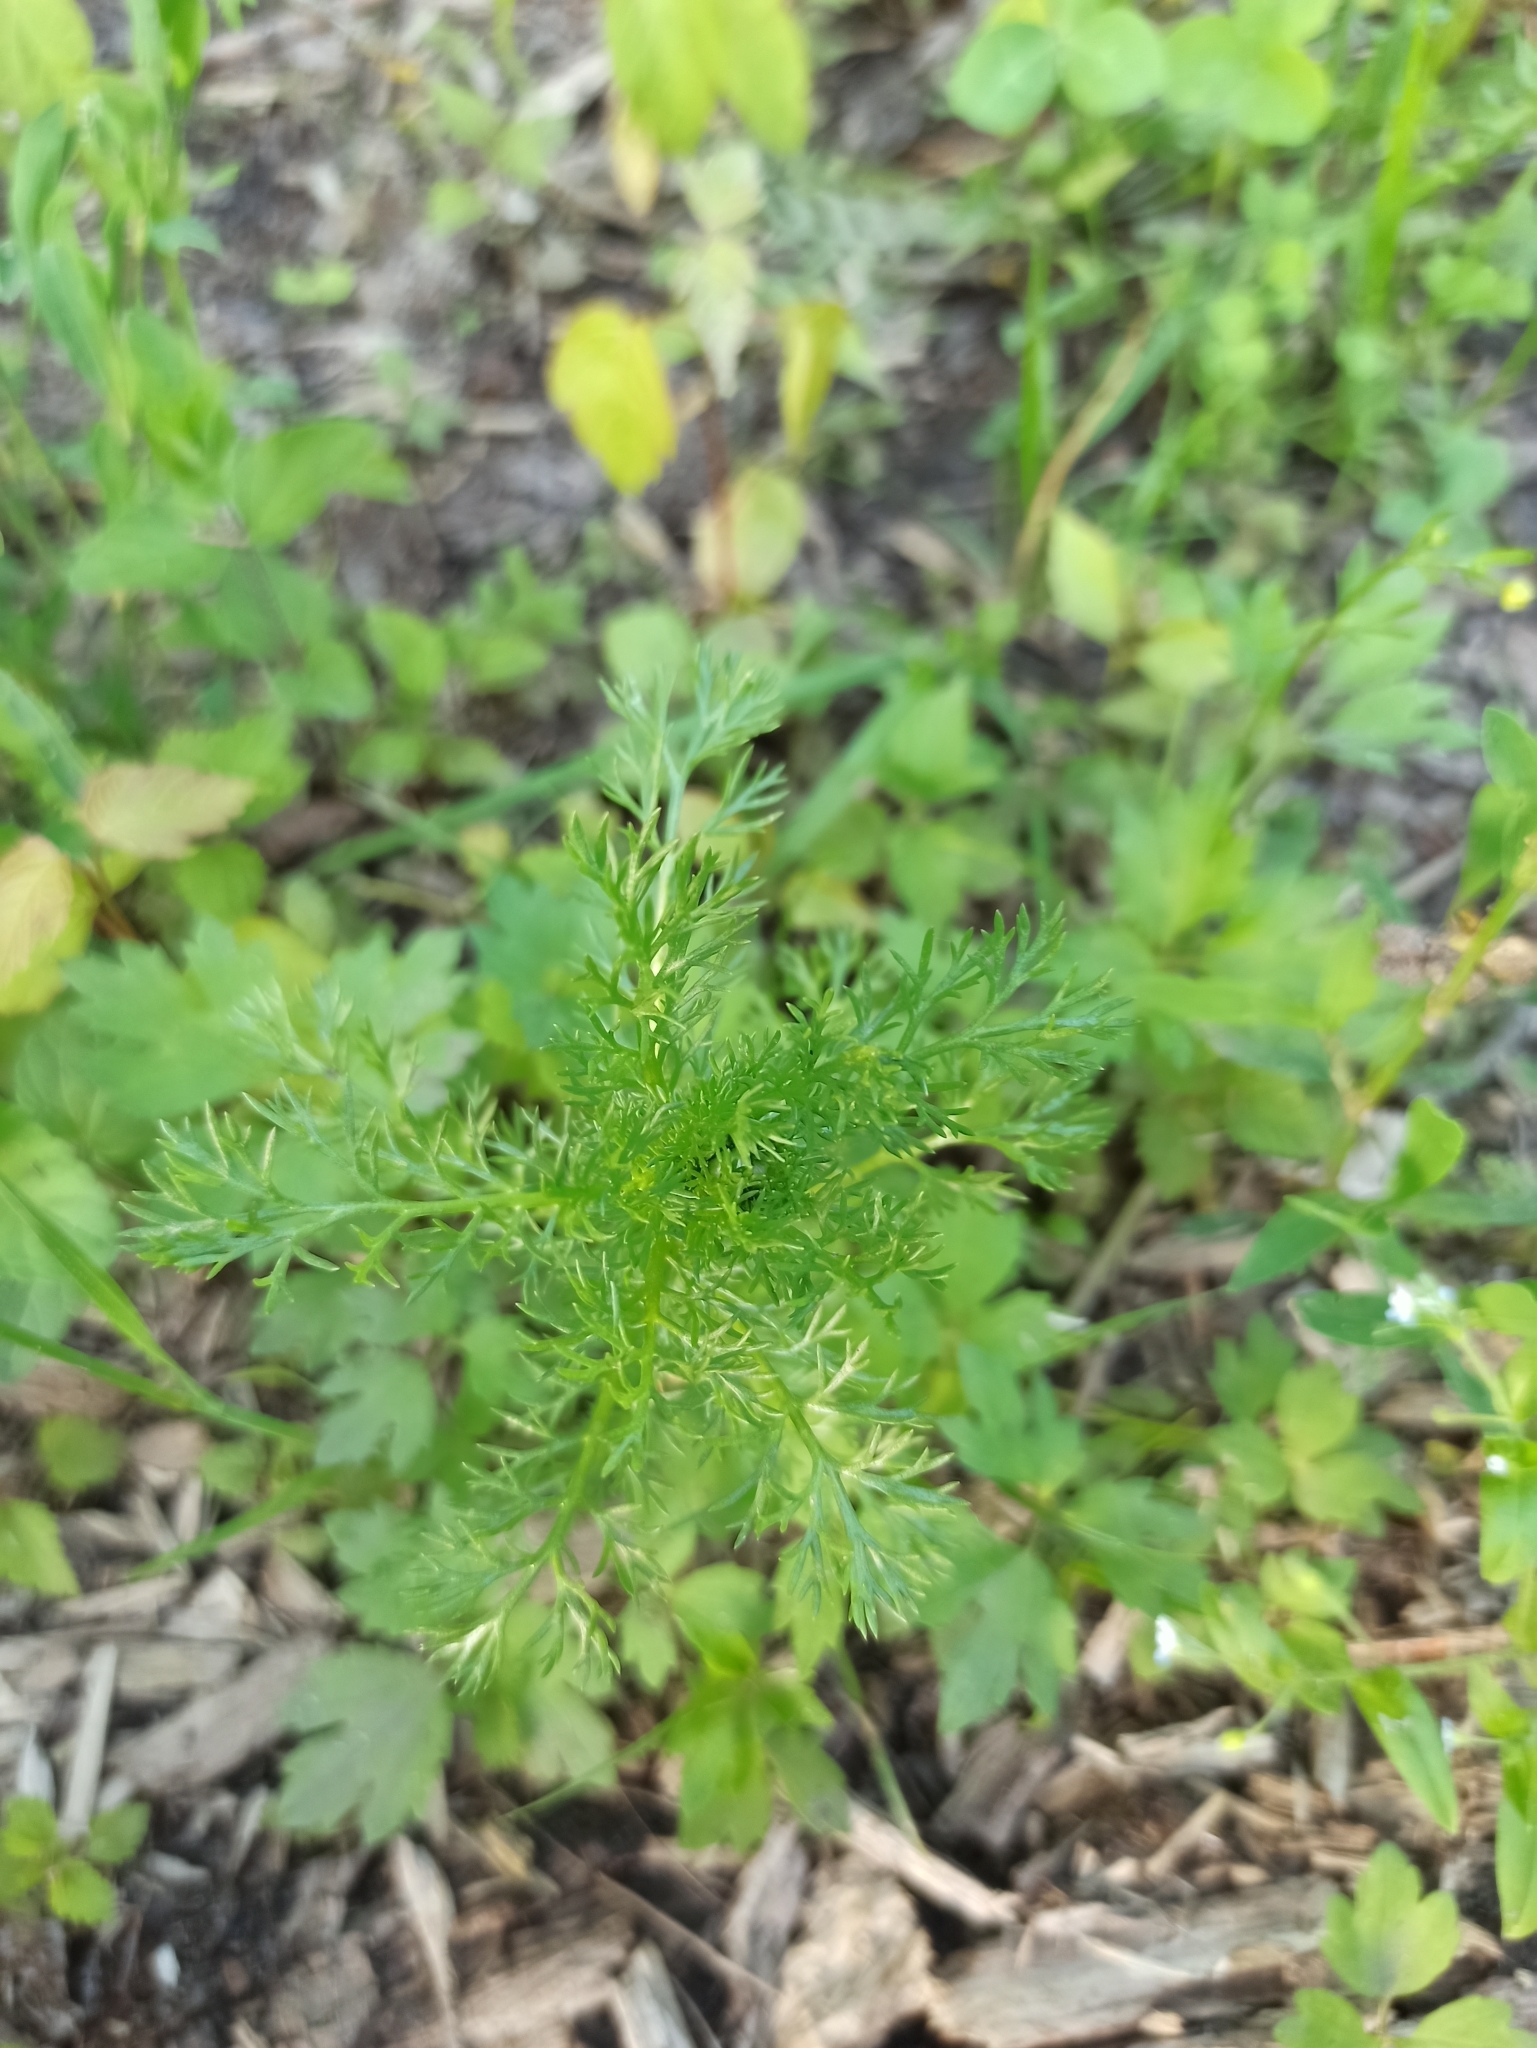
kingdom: Plantae
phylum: Tracheophyta
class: Magnoliopsida
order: Asterales
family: Asteraceae
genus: Matricaria
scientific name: Matricaria discoidea
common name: Disc mayweed
